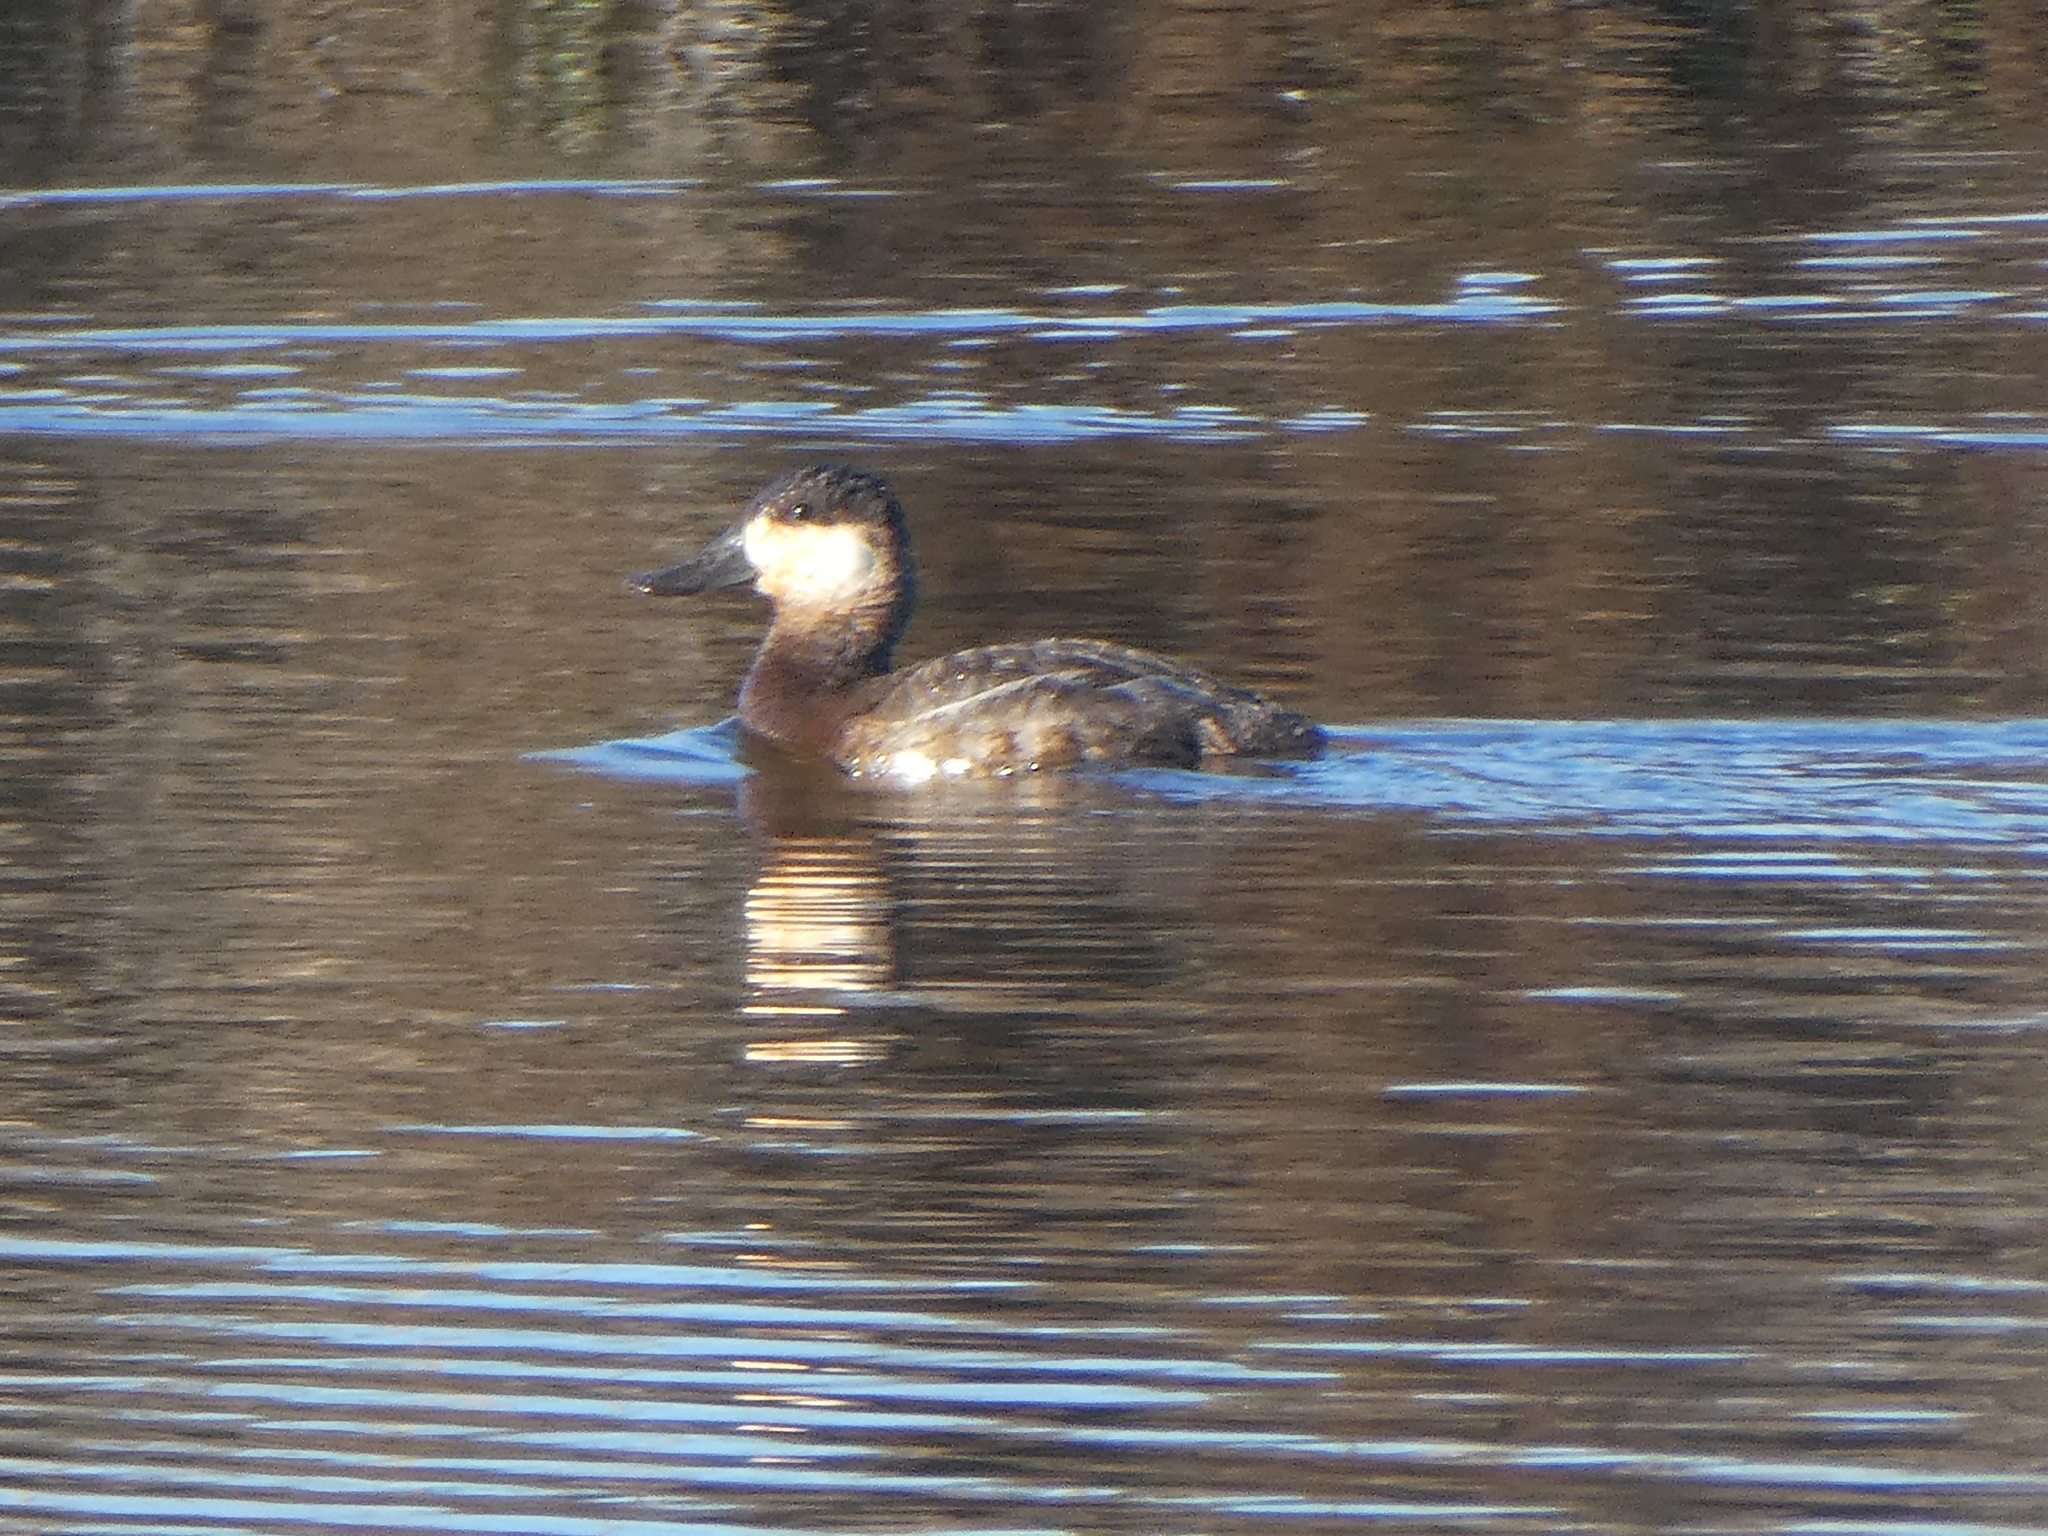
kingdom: Animalia
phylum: Chordata
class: Aves
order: Anseriformes
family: Anatidae
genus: Oxyura
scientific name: Oxyura jamaicensis
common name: Ruddy duck
